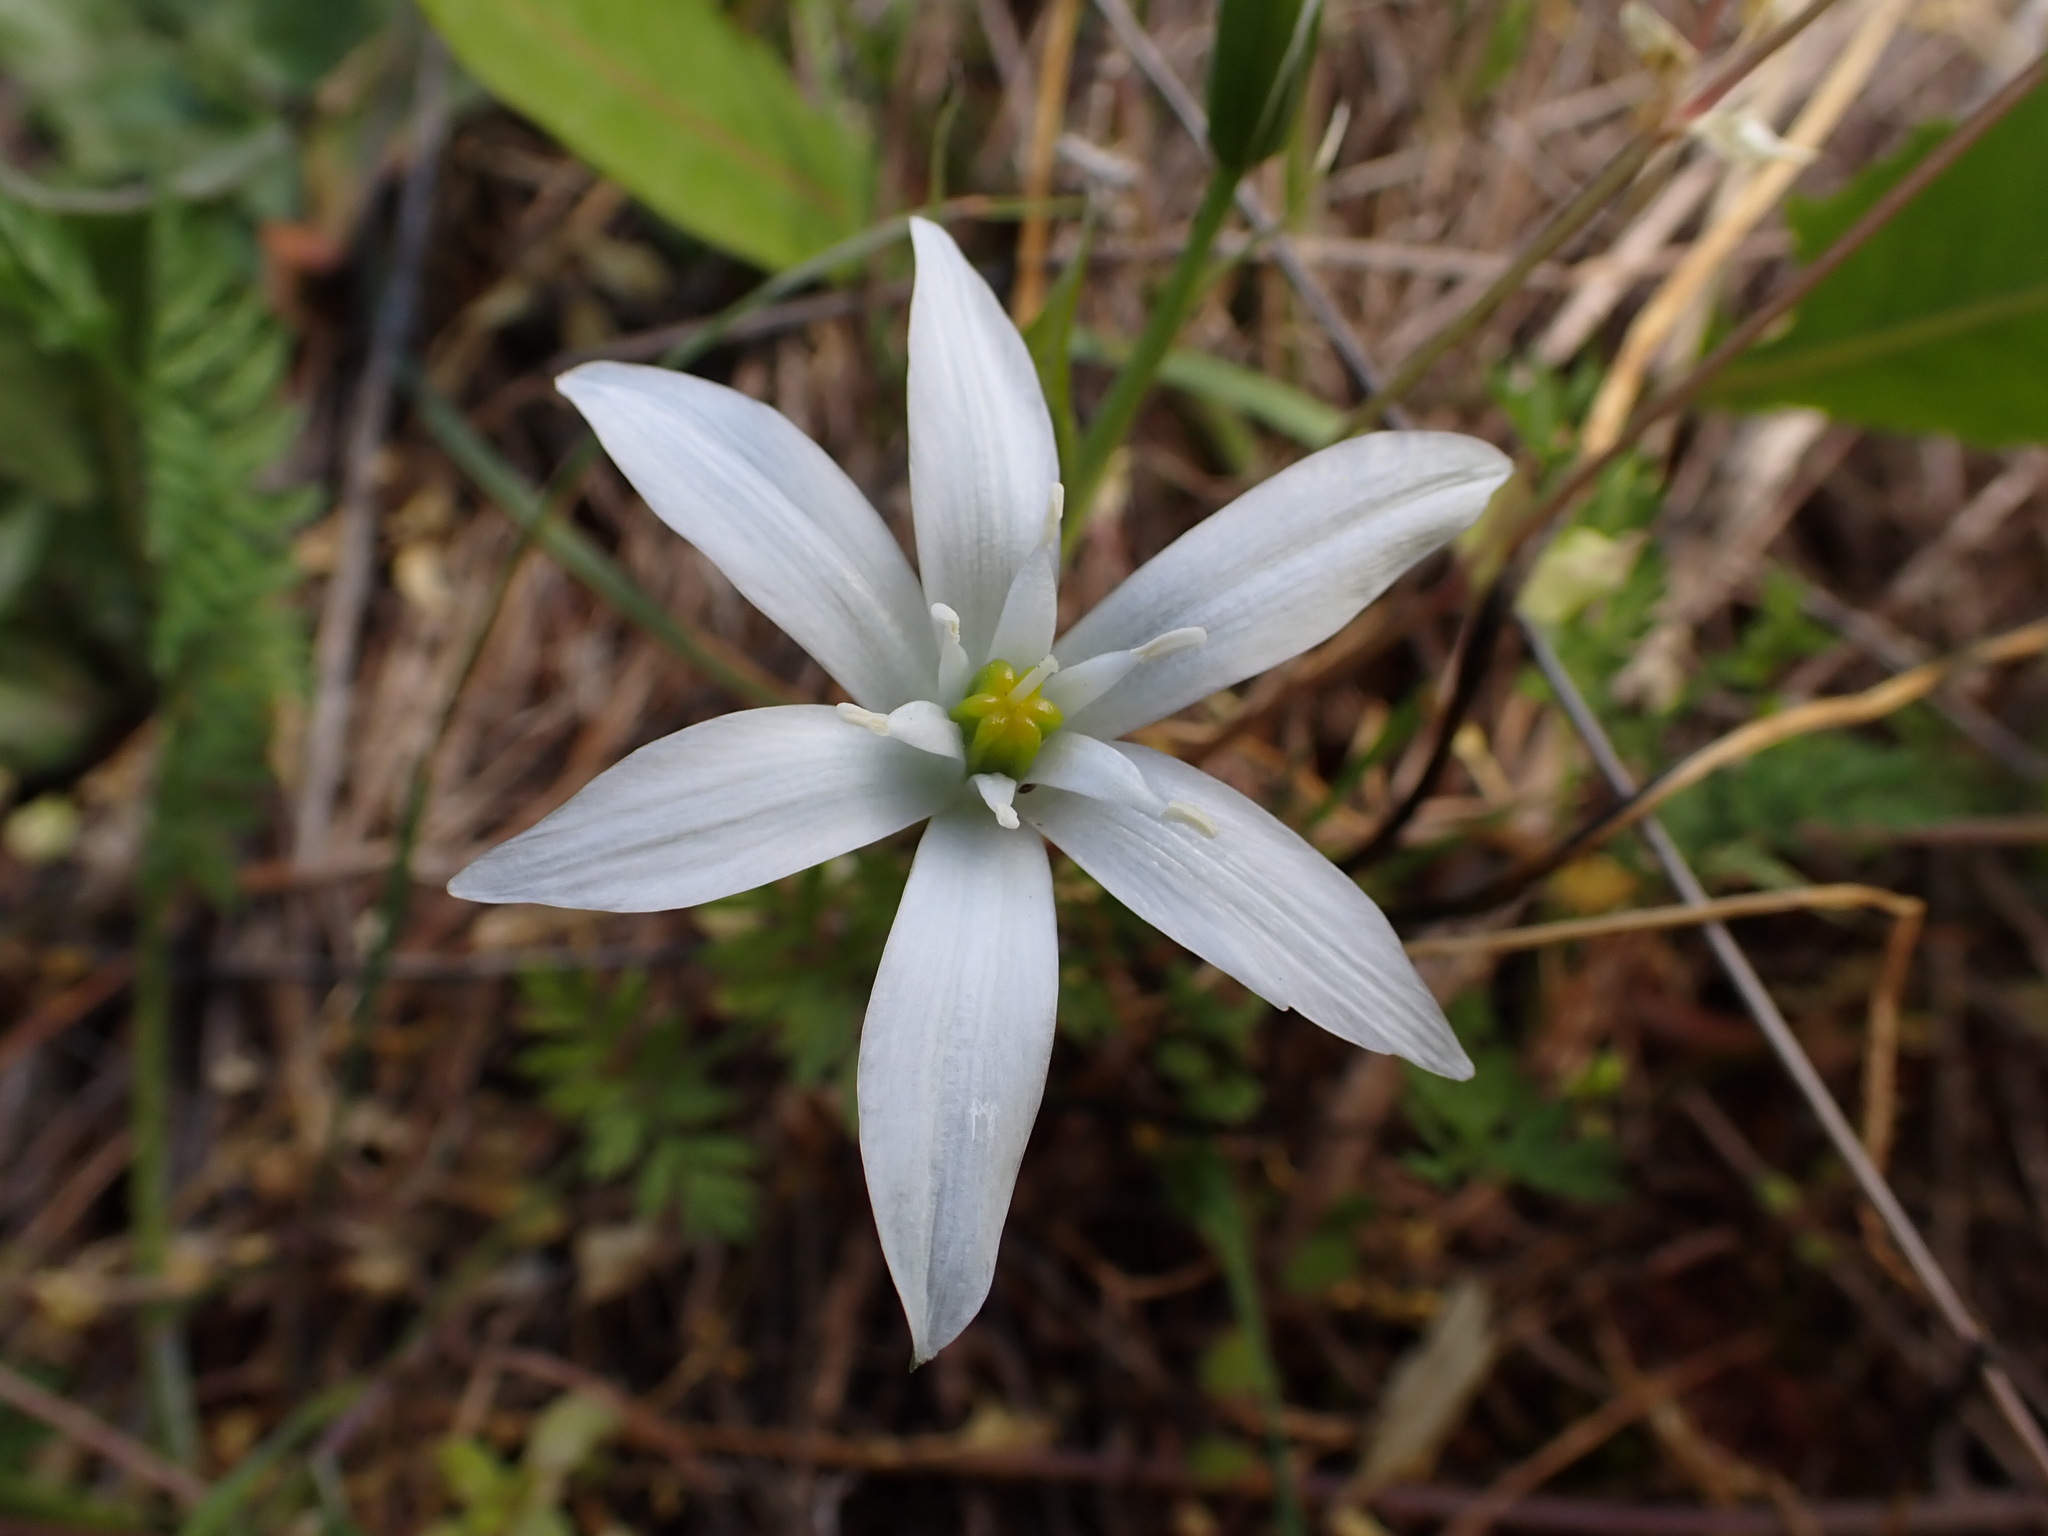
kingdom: Plantae
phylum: Tracheophyta
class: Liliopsida
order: Asparagales
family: Asparagaceae
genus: Ornithogalum
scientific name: Ornithogalum divergens
